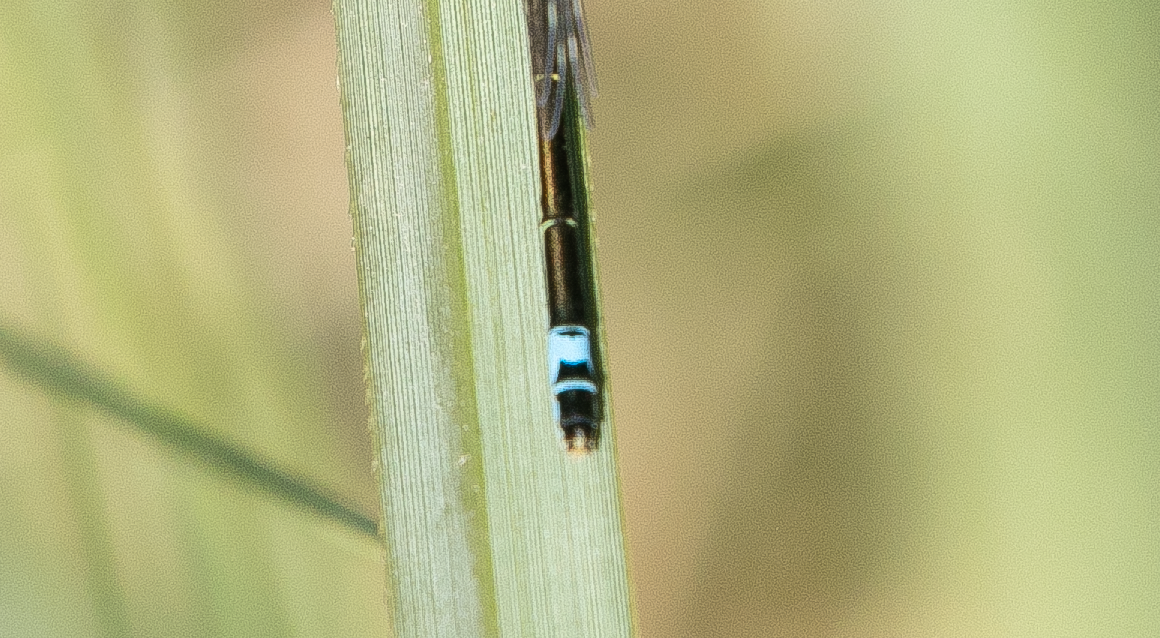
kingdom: Animalia
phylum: Arthropoda
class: Insecta
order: Odonata
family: Coenagrionidae
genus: Ischnura
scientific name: Ischnura elegans
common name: Blue-tailed damselfly
